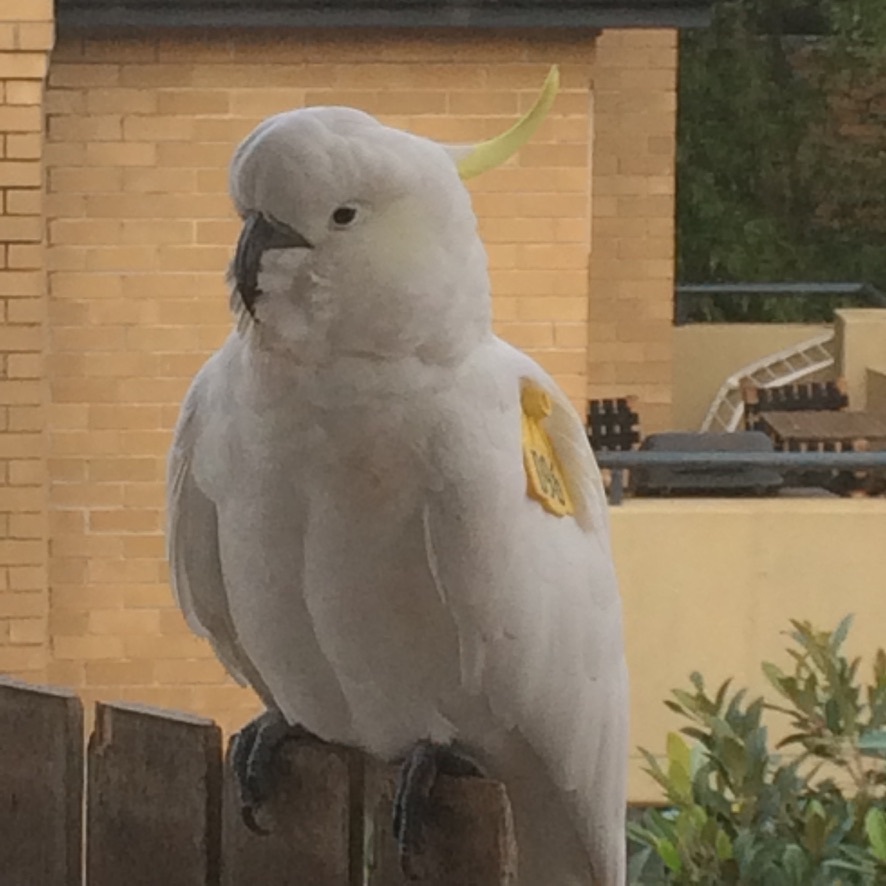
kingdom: Animalia
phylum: Chordata
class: Aves
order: Psittaciformes
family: Psittacidae
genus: Cacatua
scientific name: Cacatua galerita
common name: Sulphur-crested cockatoo
